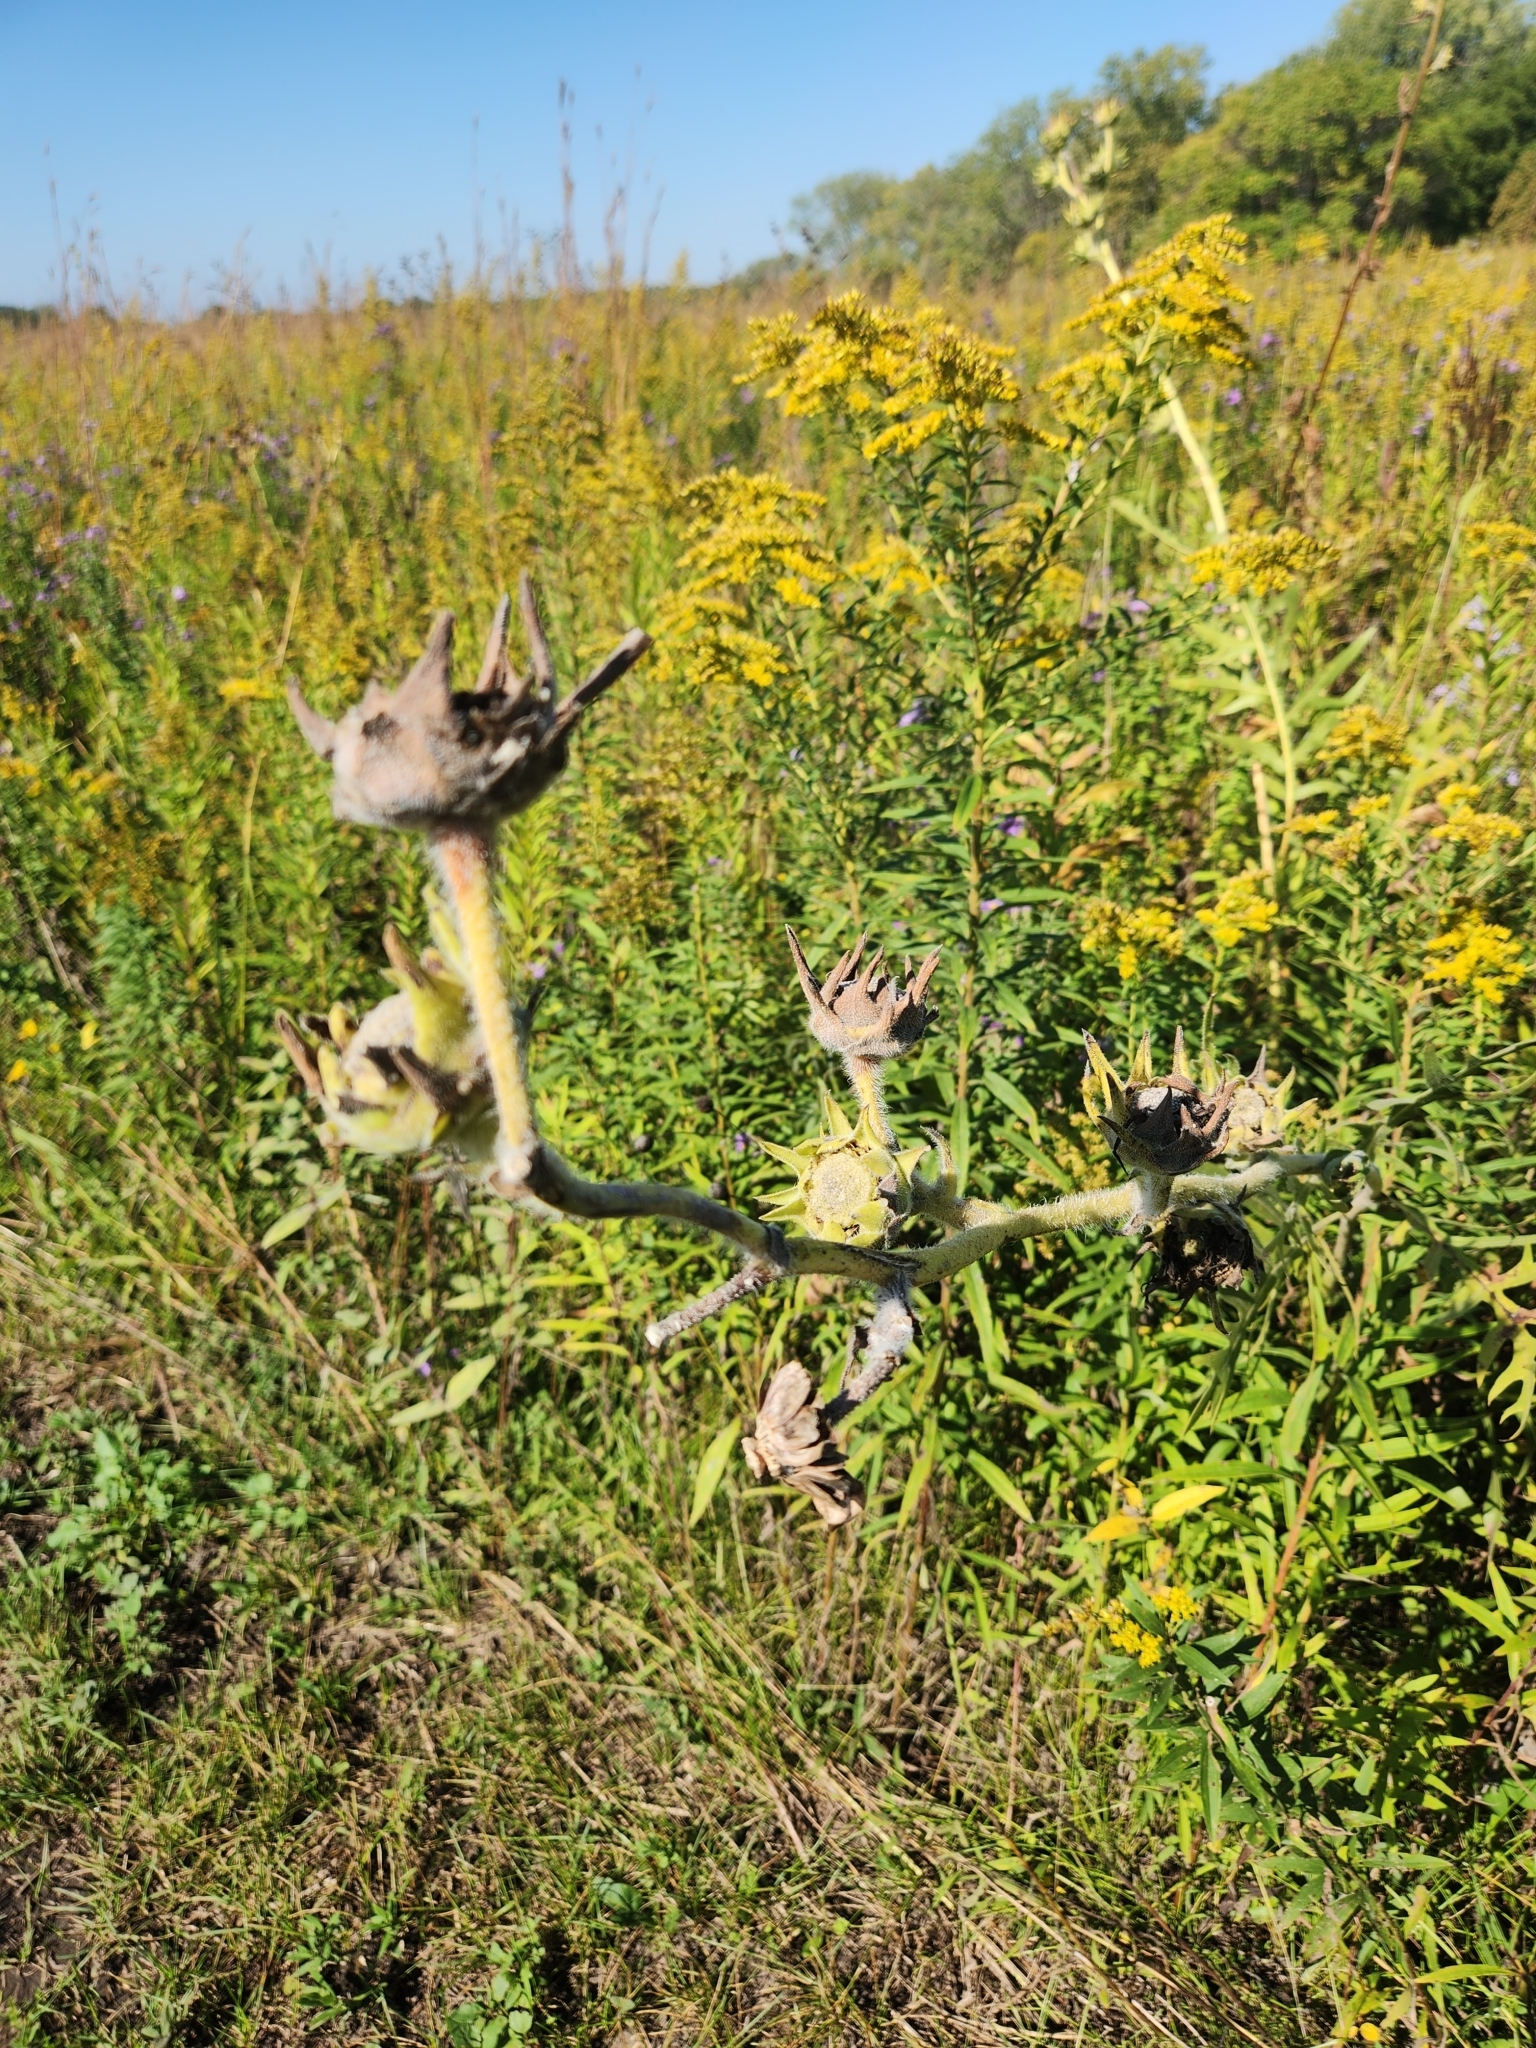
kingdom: Plantae
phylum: Tracheophyta
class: Magnoliopsida
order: Asterales
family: Asteraceae
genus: Silphium
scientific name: Silphium laciniatum
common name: Polarplant
